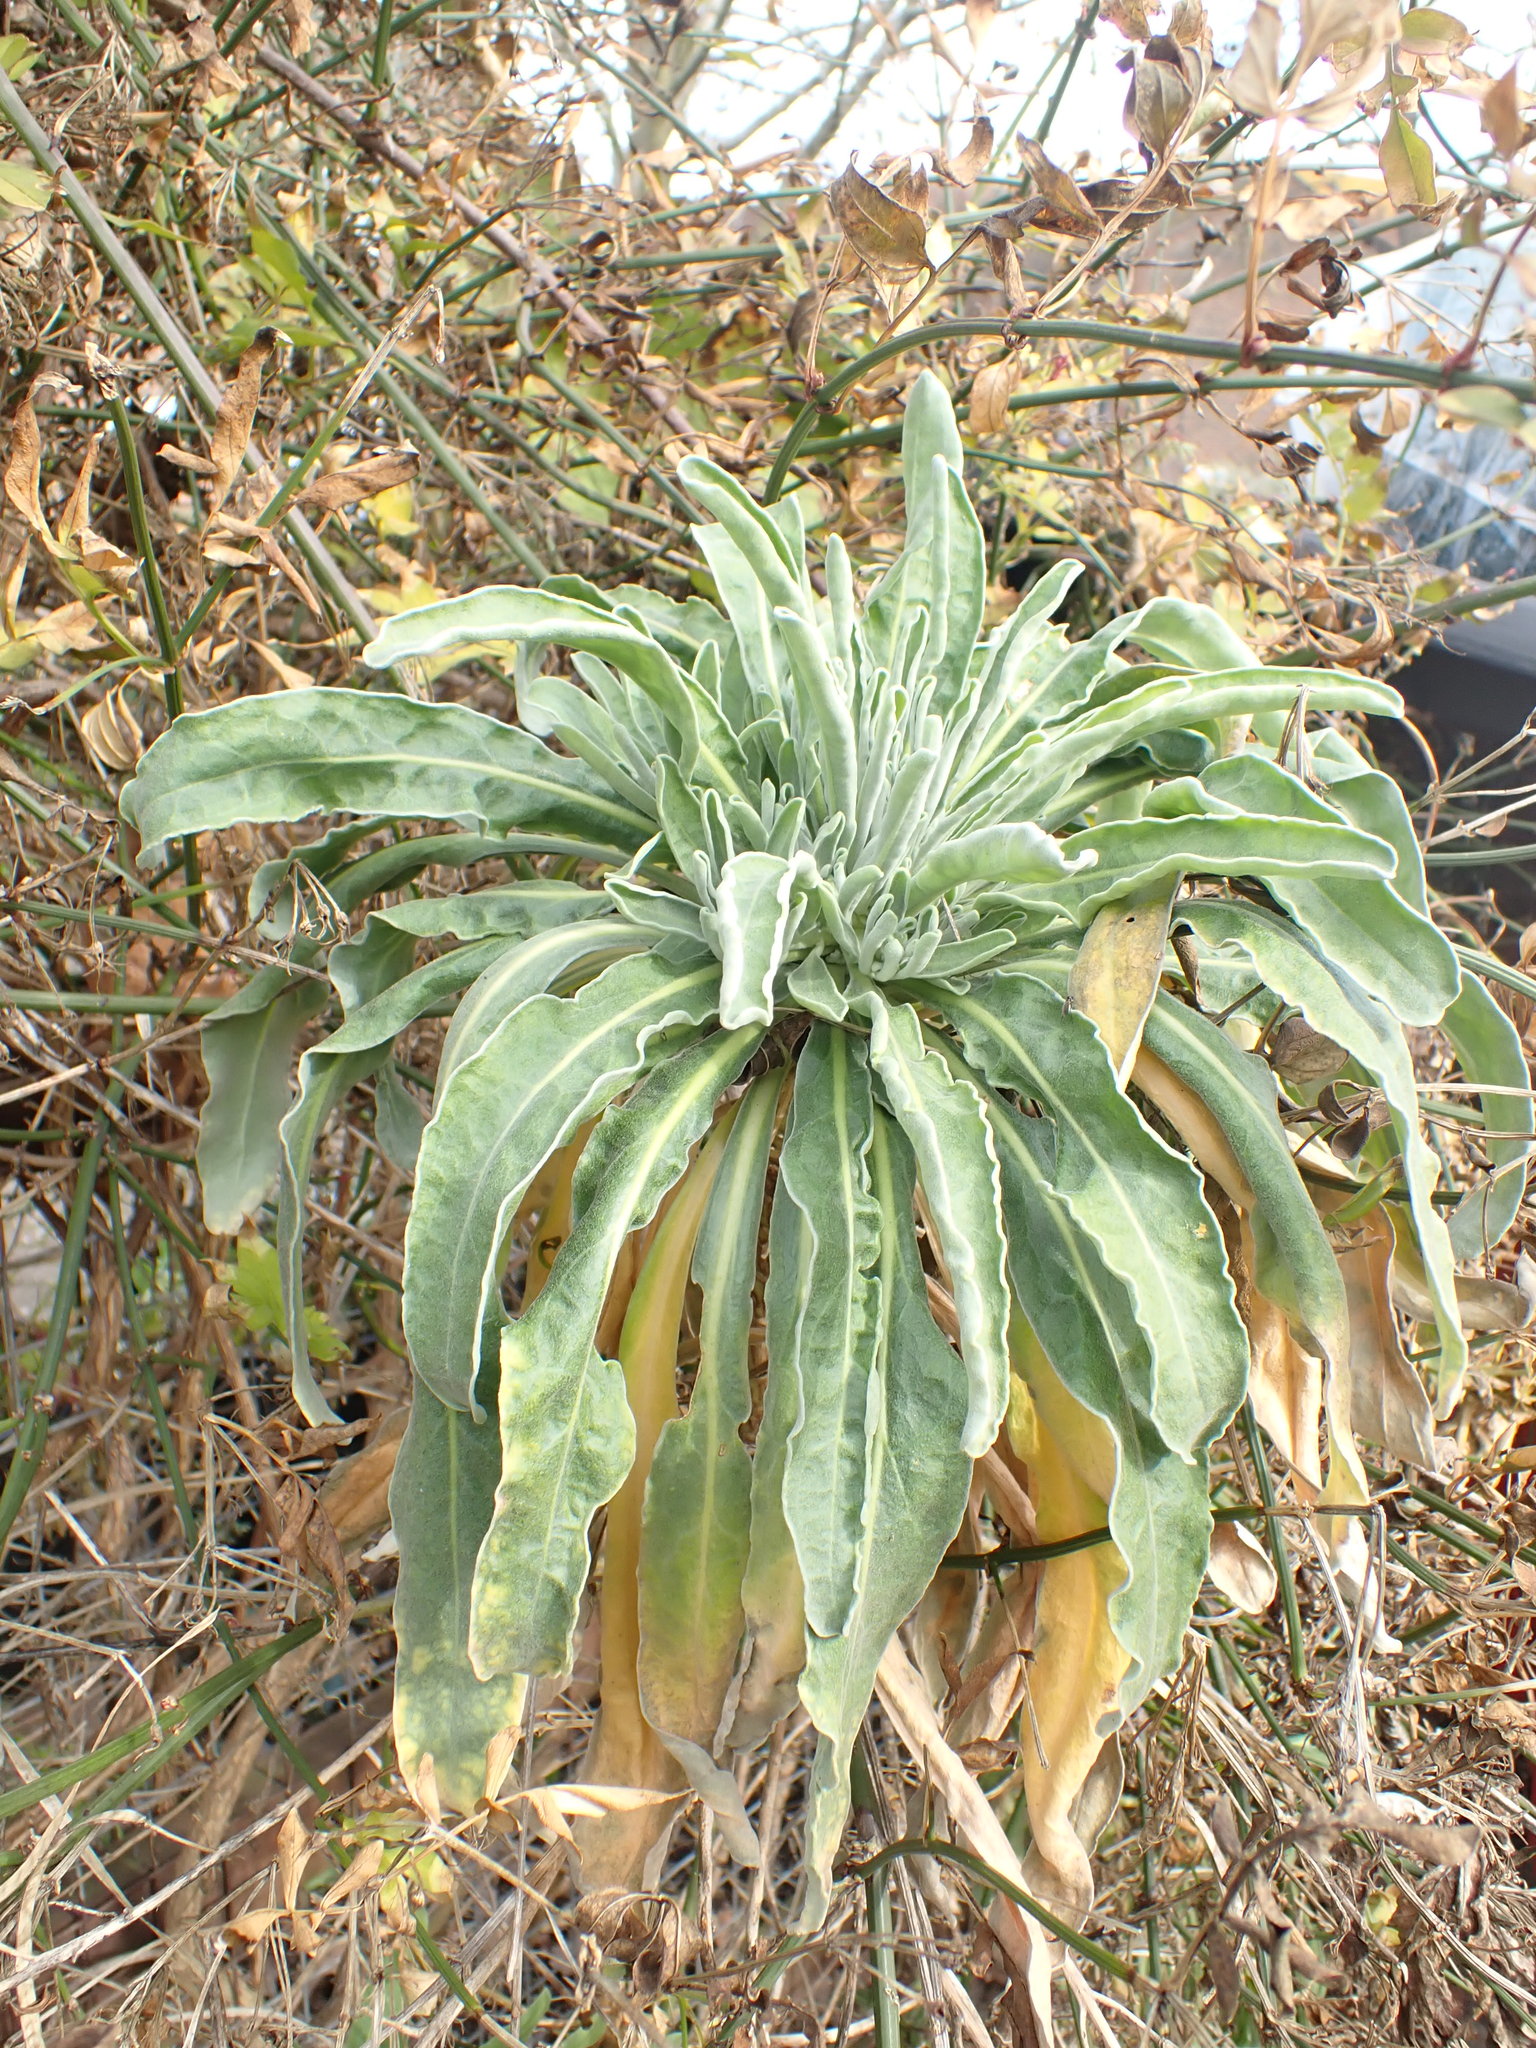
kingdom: Plantae
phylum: Tracheophyta
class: Magnoliopsida
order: Brassicales
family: Brassicaceae
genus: Matthiola
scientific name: Matthiola incana
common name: Hoary stock
